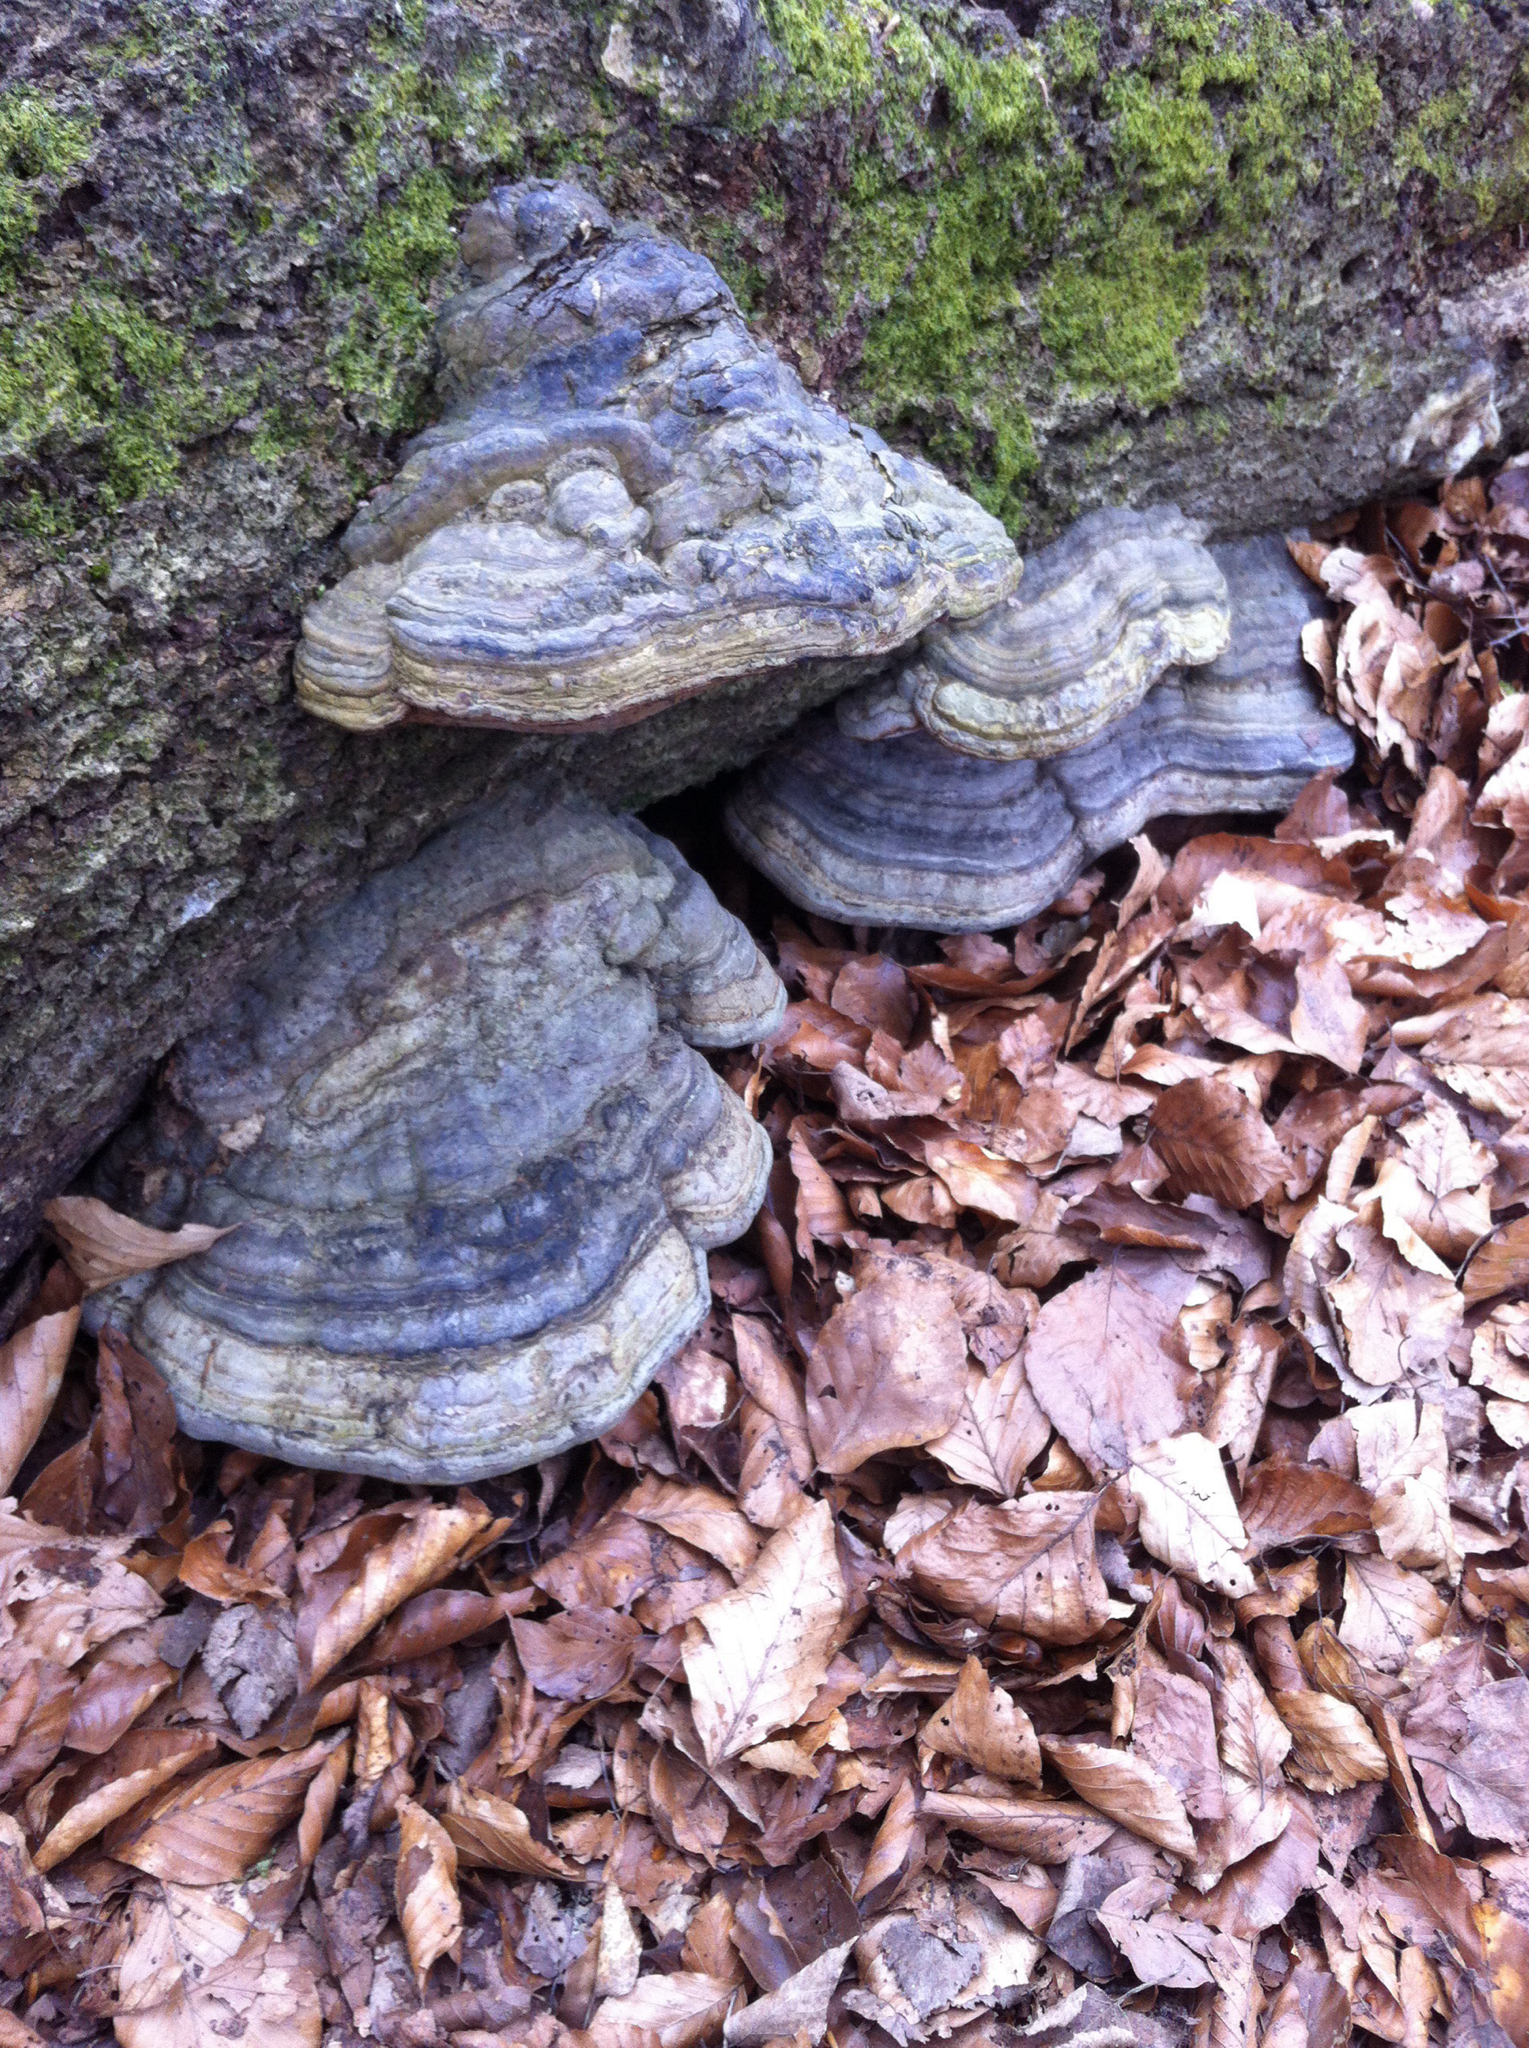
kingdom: Fungi
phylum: Basidiomycota
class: Agaricomycetes
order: Polyporales
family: Polyporaceae
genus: Fomes
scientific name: Fomes fomentarius
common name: Hoof fungus
